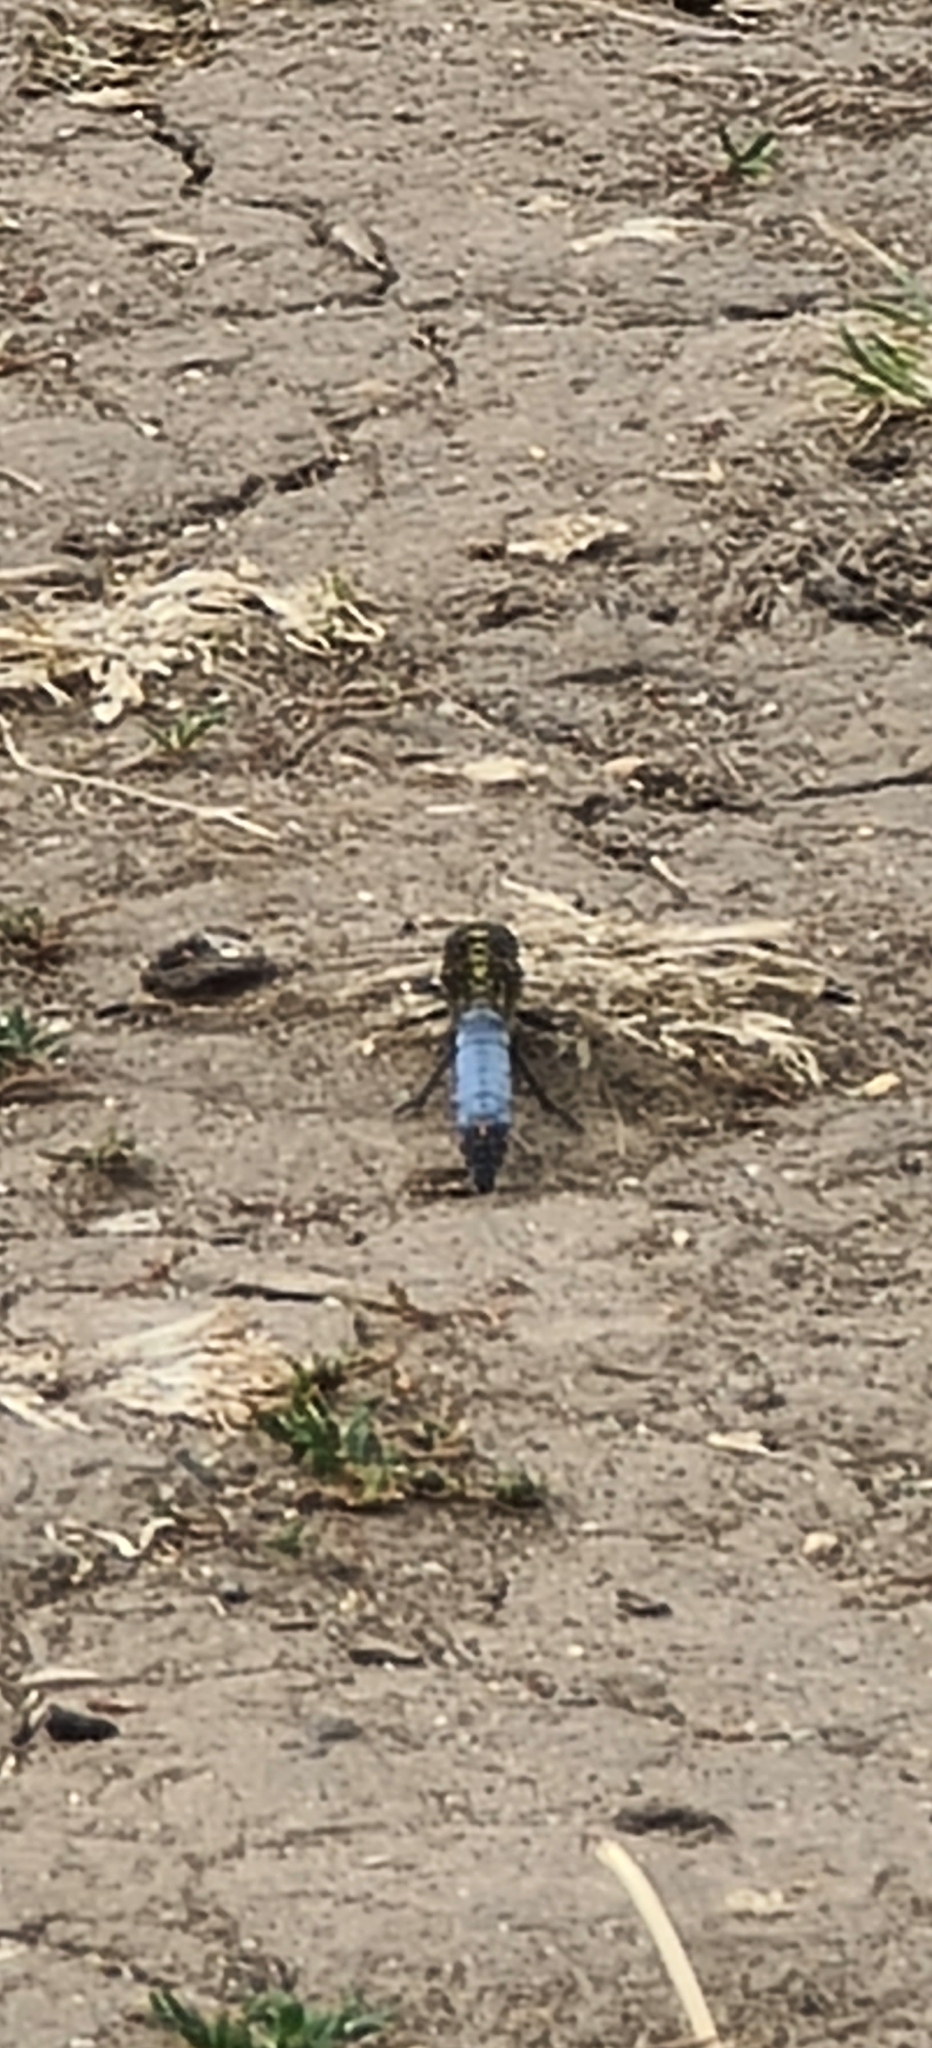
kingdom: Animalia
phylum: Arthropoda
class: Insecta
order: Odonata
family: Libellulidae
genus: Orthetrum
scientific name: Orthetrum cancellatum
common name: Black-tailed skimmer
